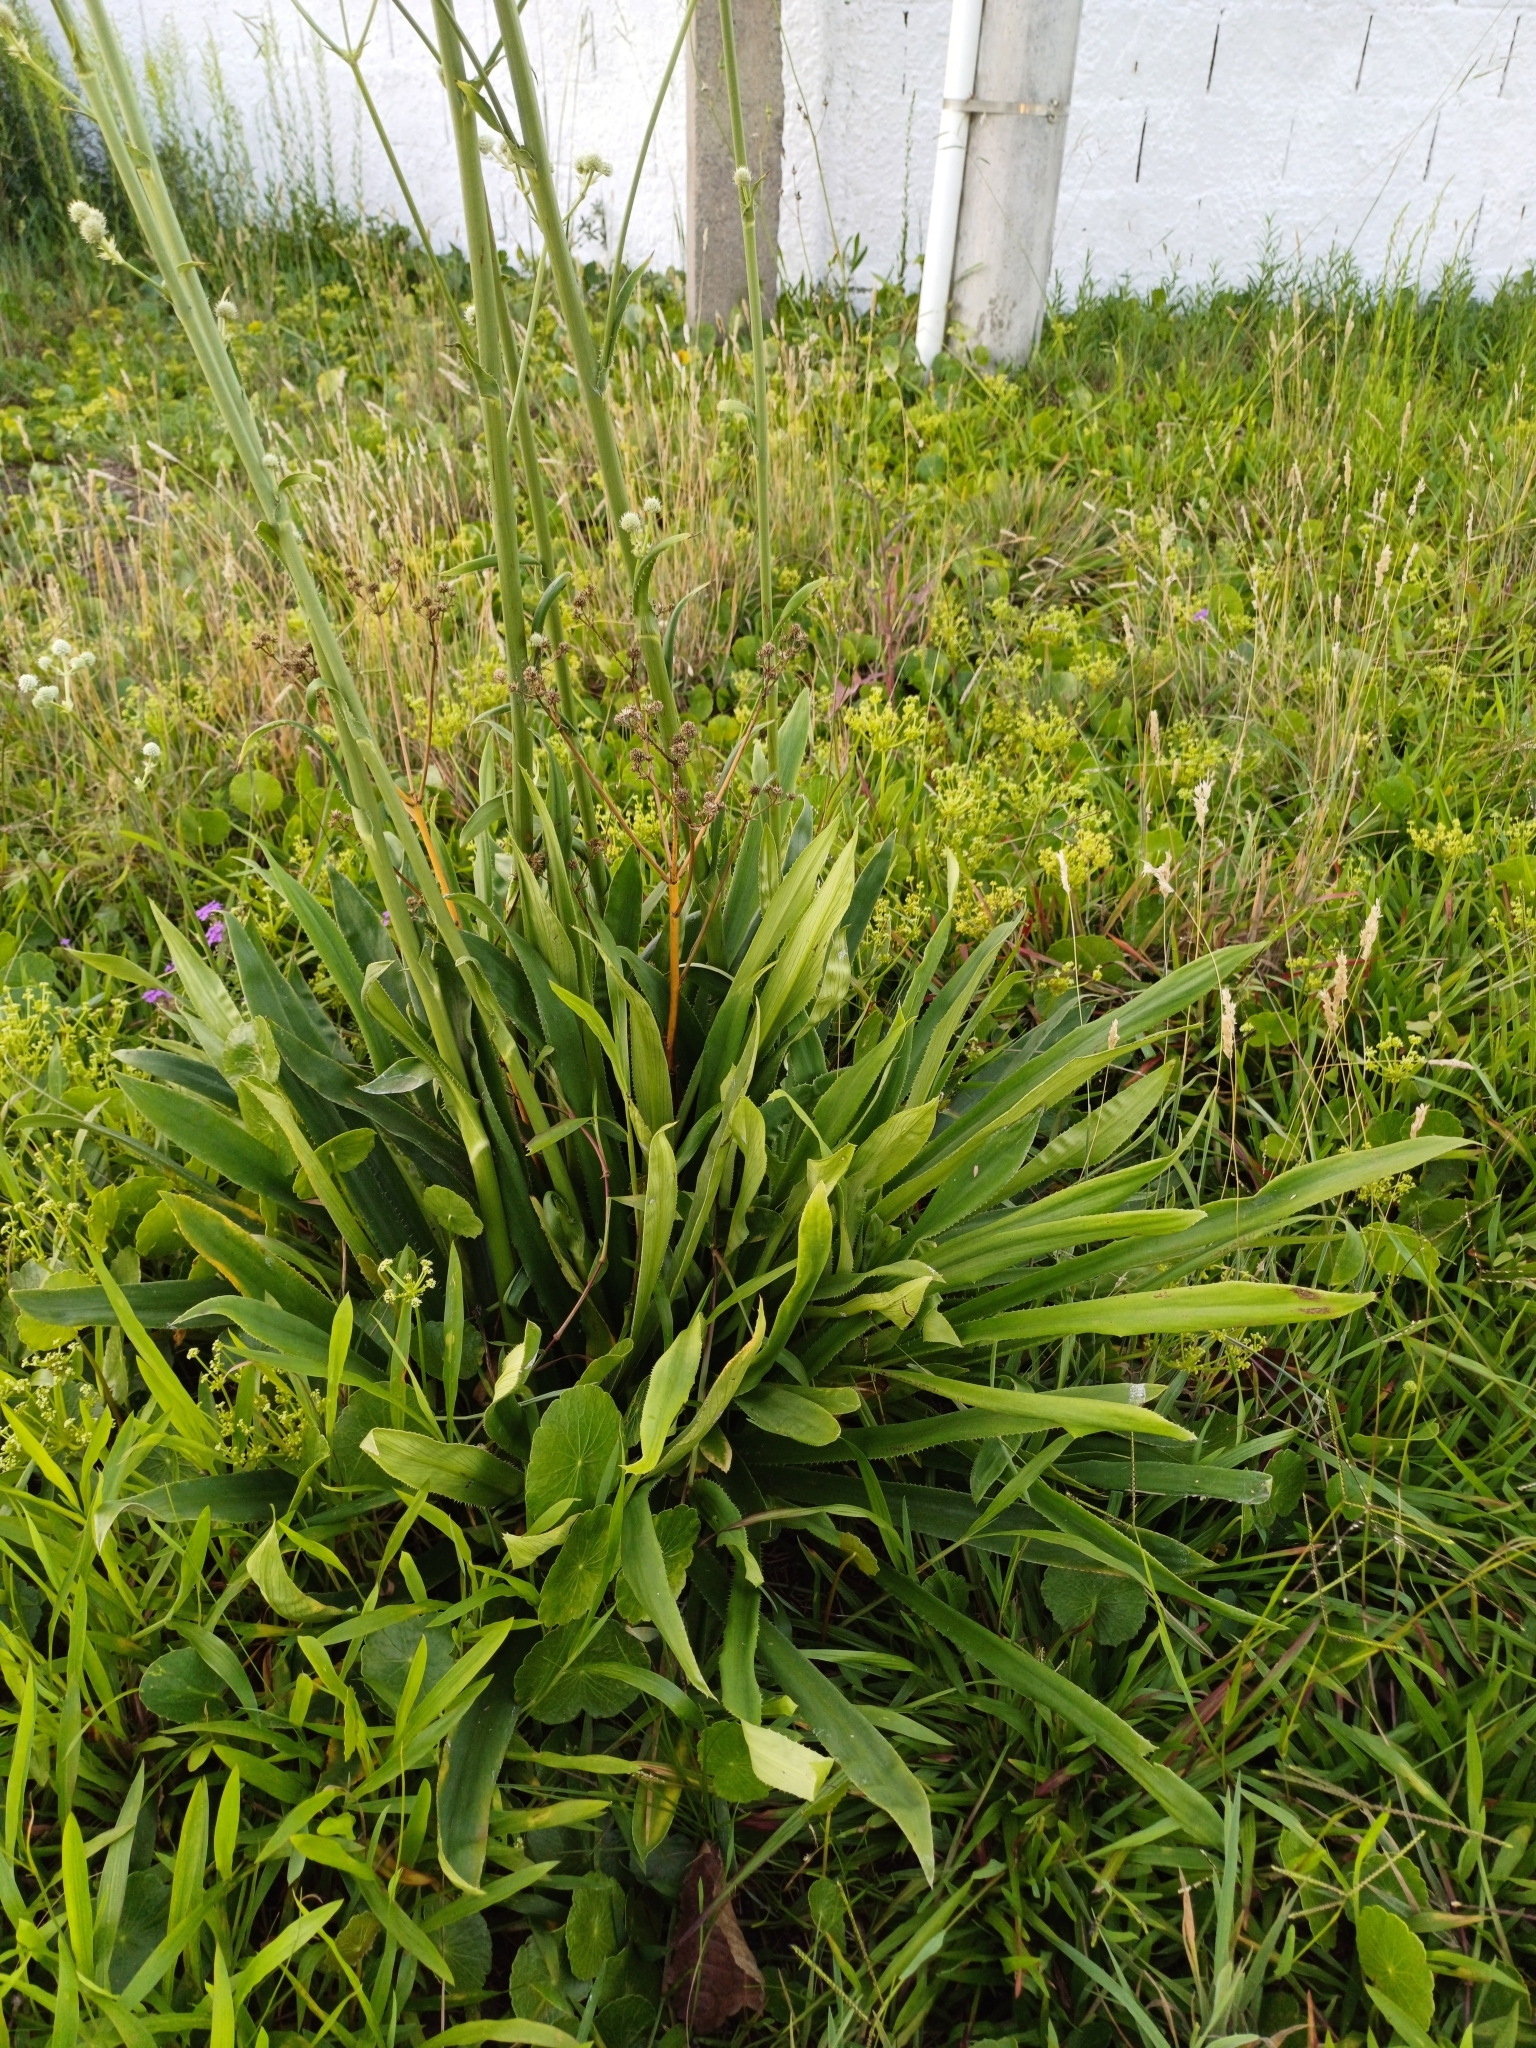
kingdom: Plantae
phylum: Tracheophyta
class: Magnoliopsida
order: Apiales
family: Apiaceae
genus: Eryngium
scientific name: Eryngium elegans
